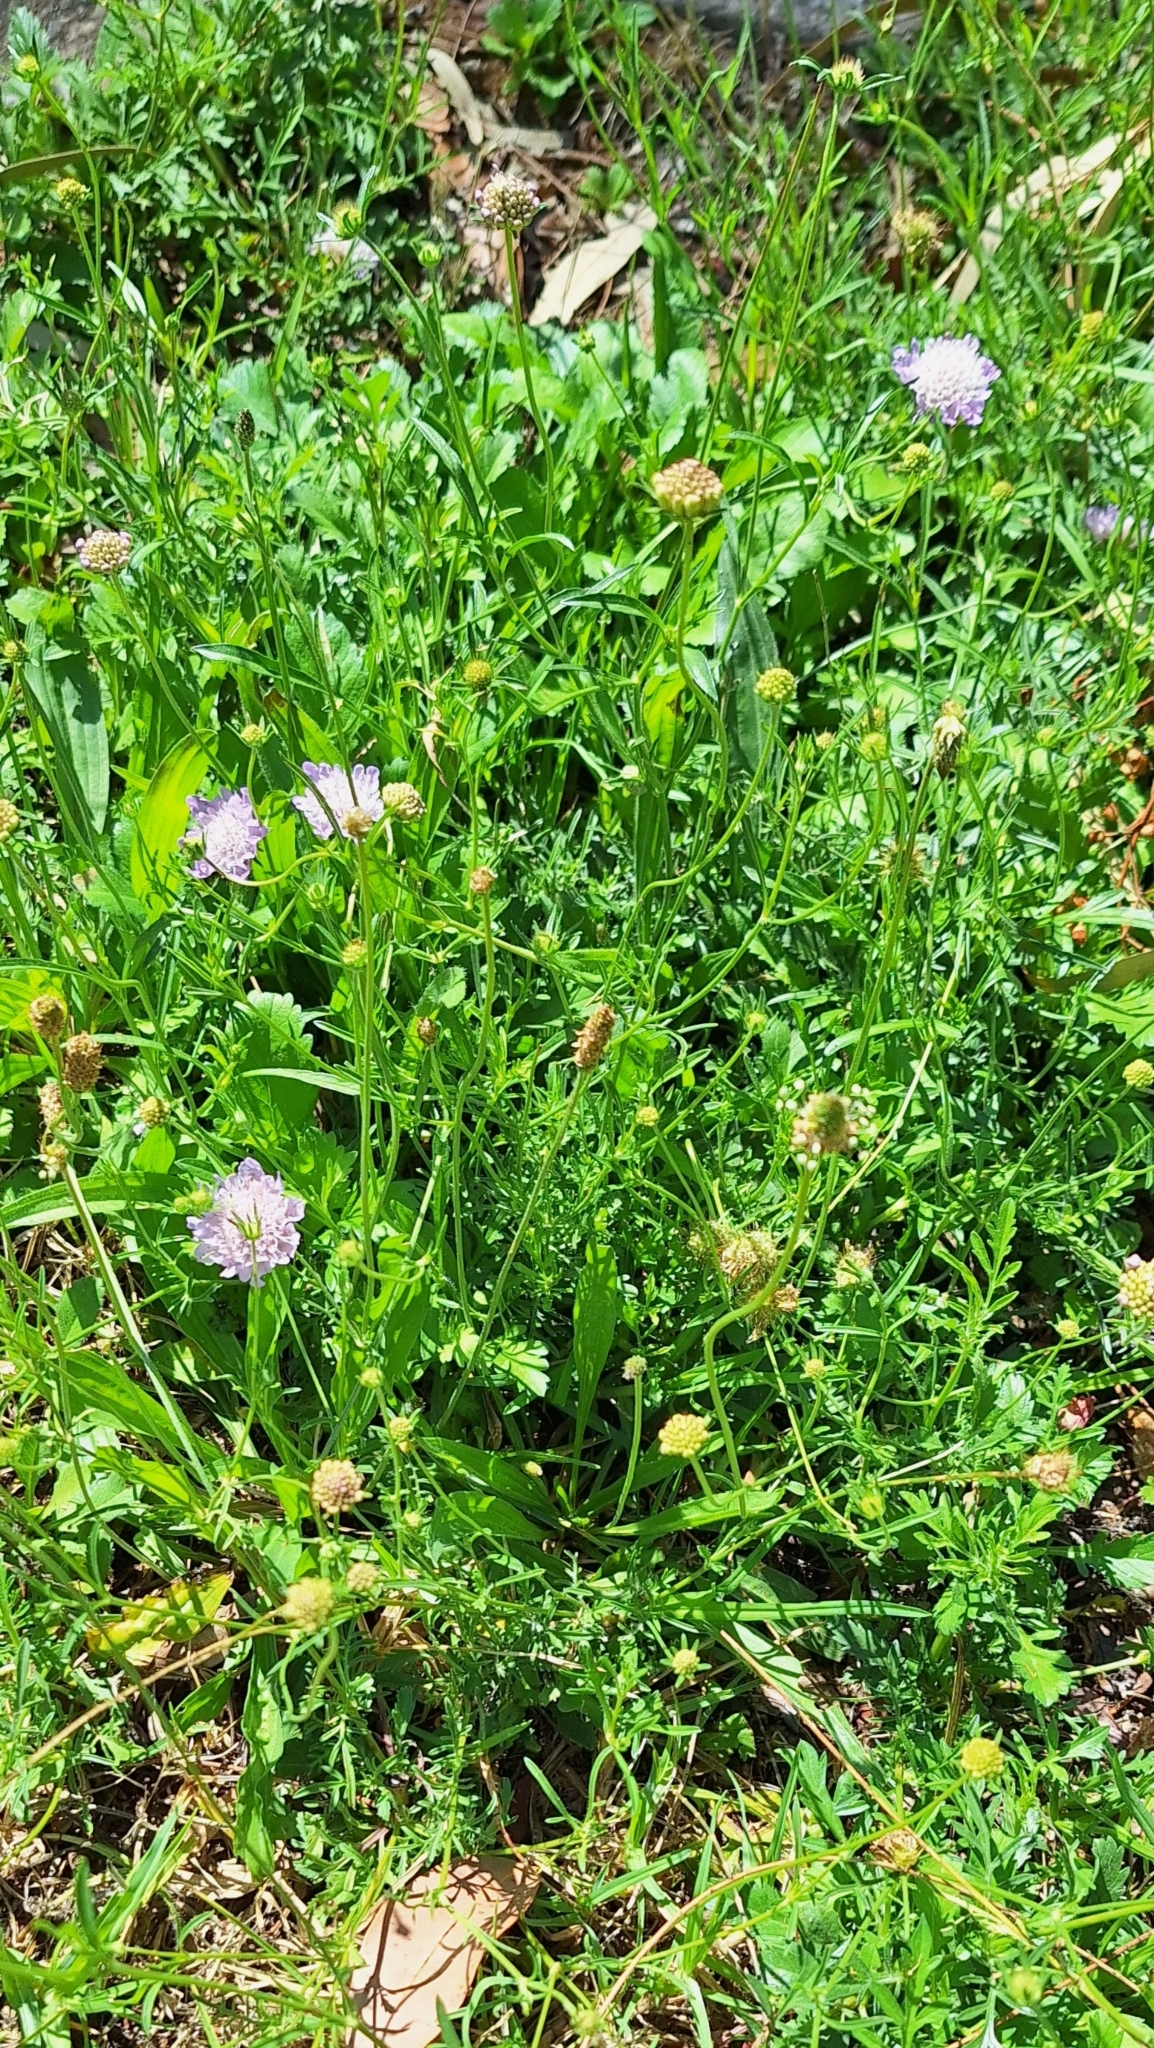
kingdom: Plantae
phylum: Tracheophyta
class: Magnoliopsida
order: Dipsacales
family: Caprifoliaceae
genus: Sixalix
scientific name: Sixalix atropurpurea
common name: Sweet scabious
